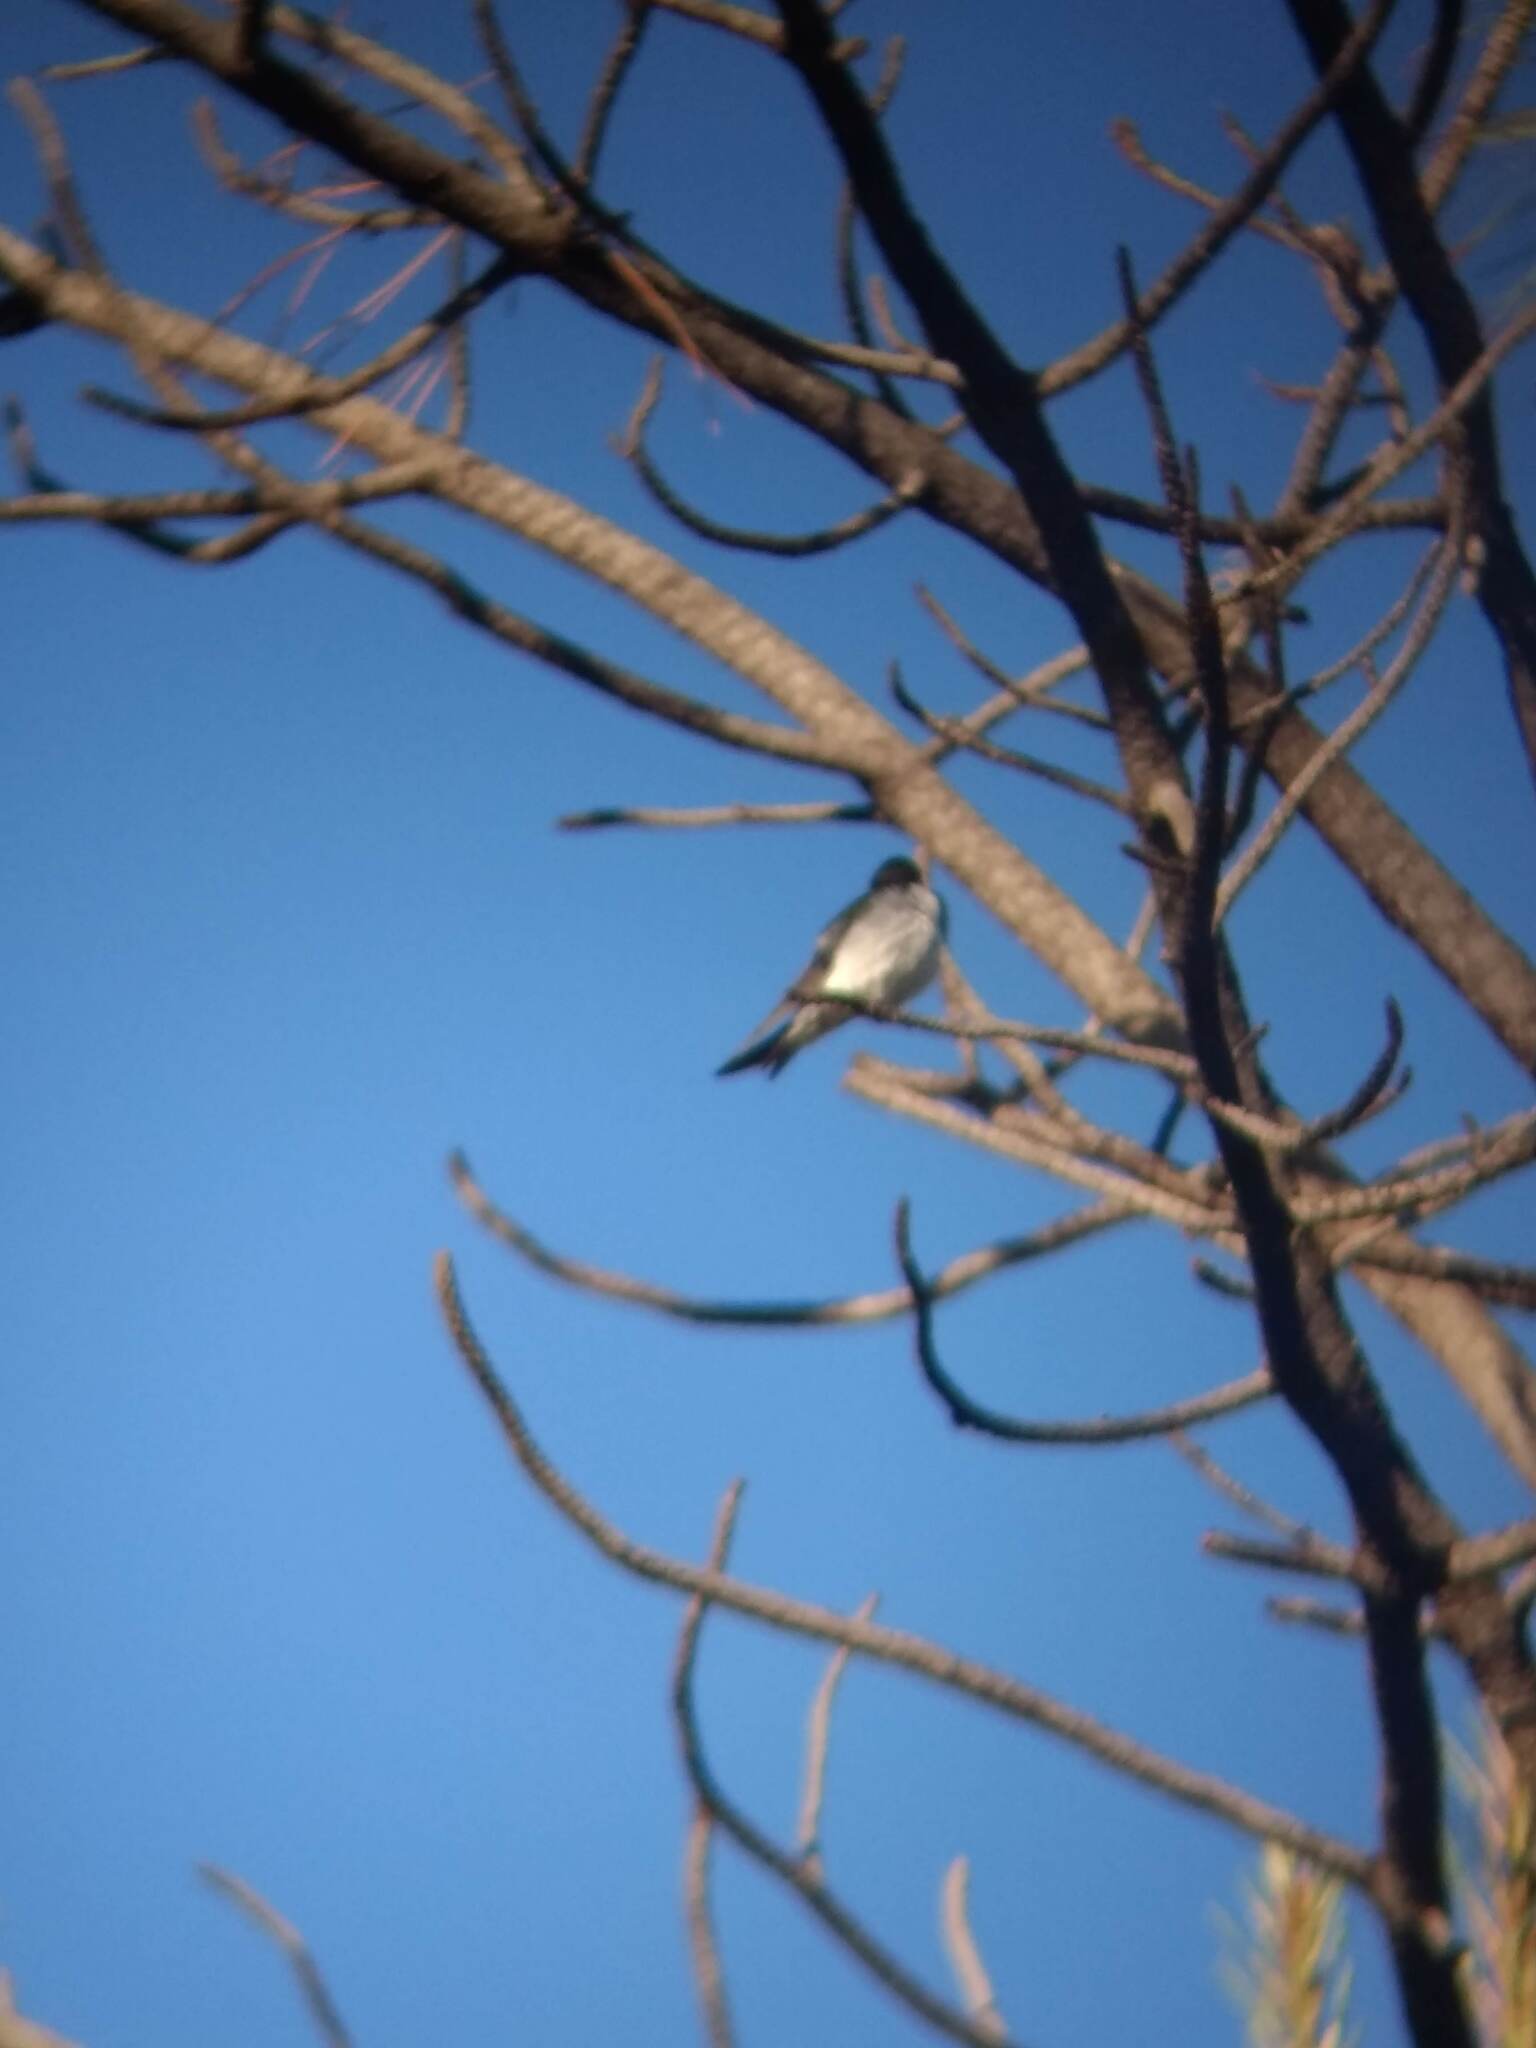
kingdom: Animalia
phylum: Chordata
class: Aves
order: Passeriformes
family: Hirundinidae
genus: Tachycineta
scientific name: Tachycineta thalassina
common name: Violet-green swallow
